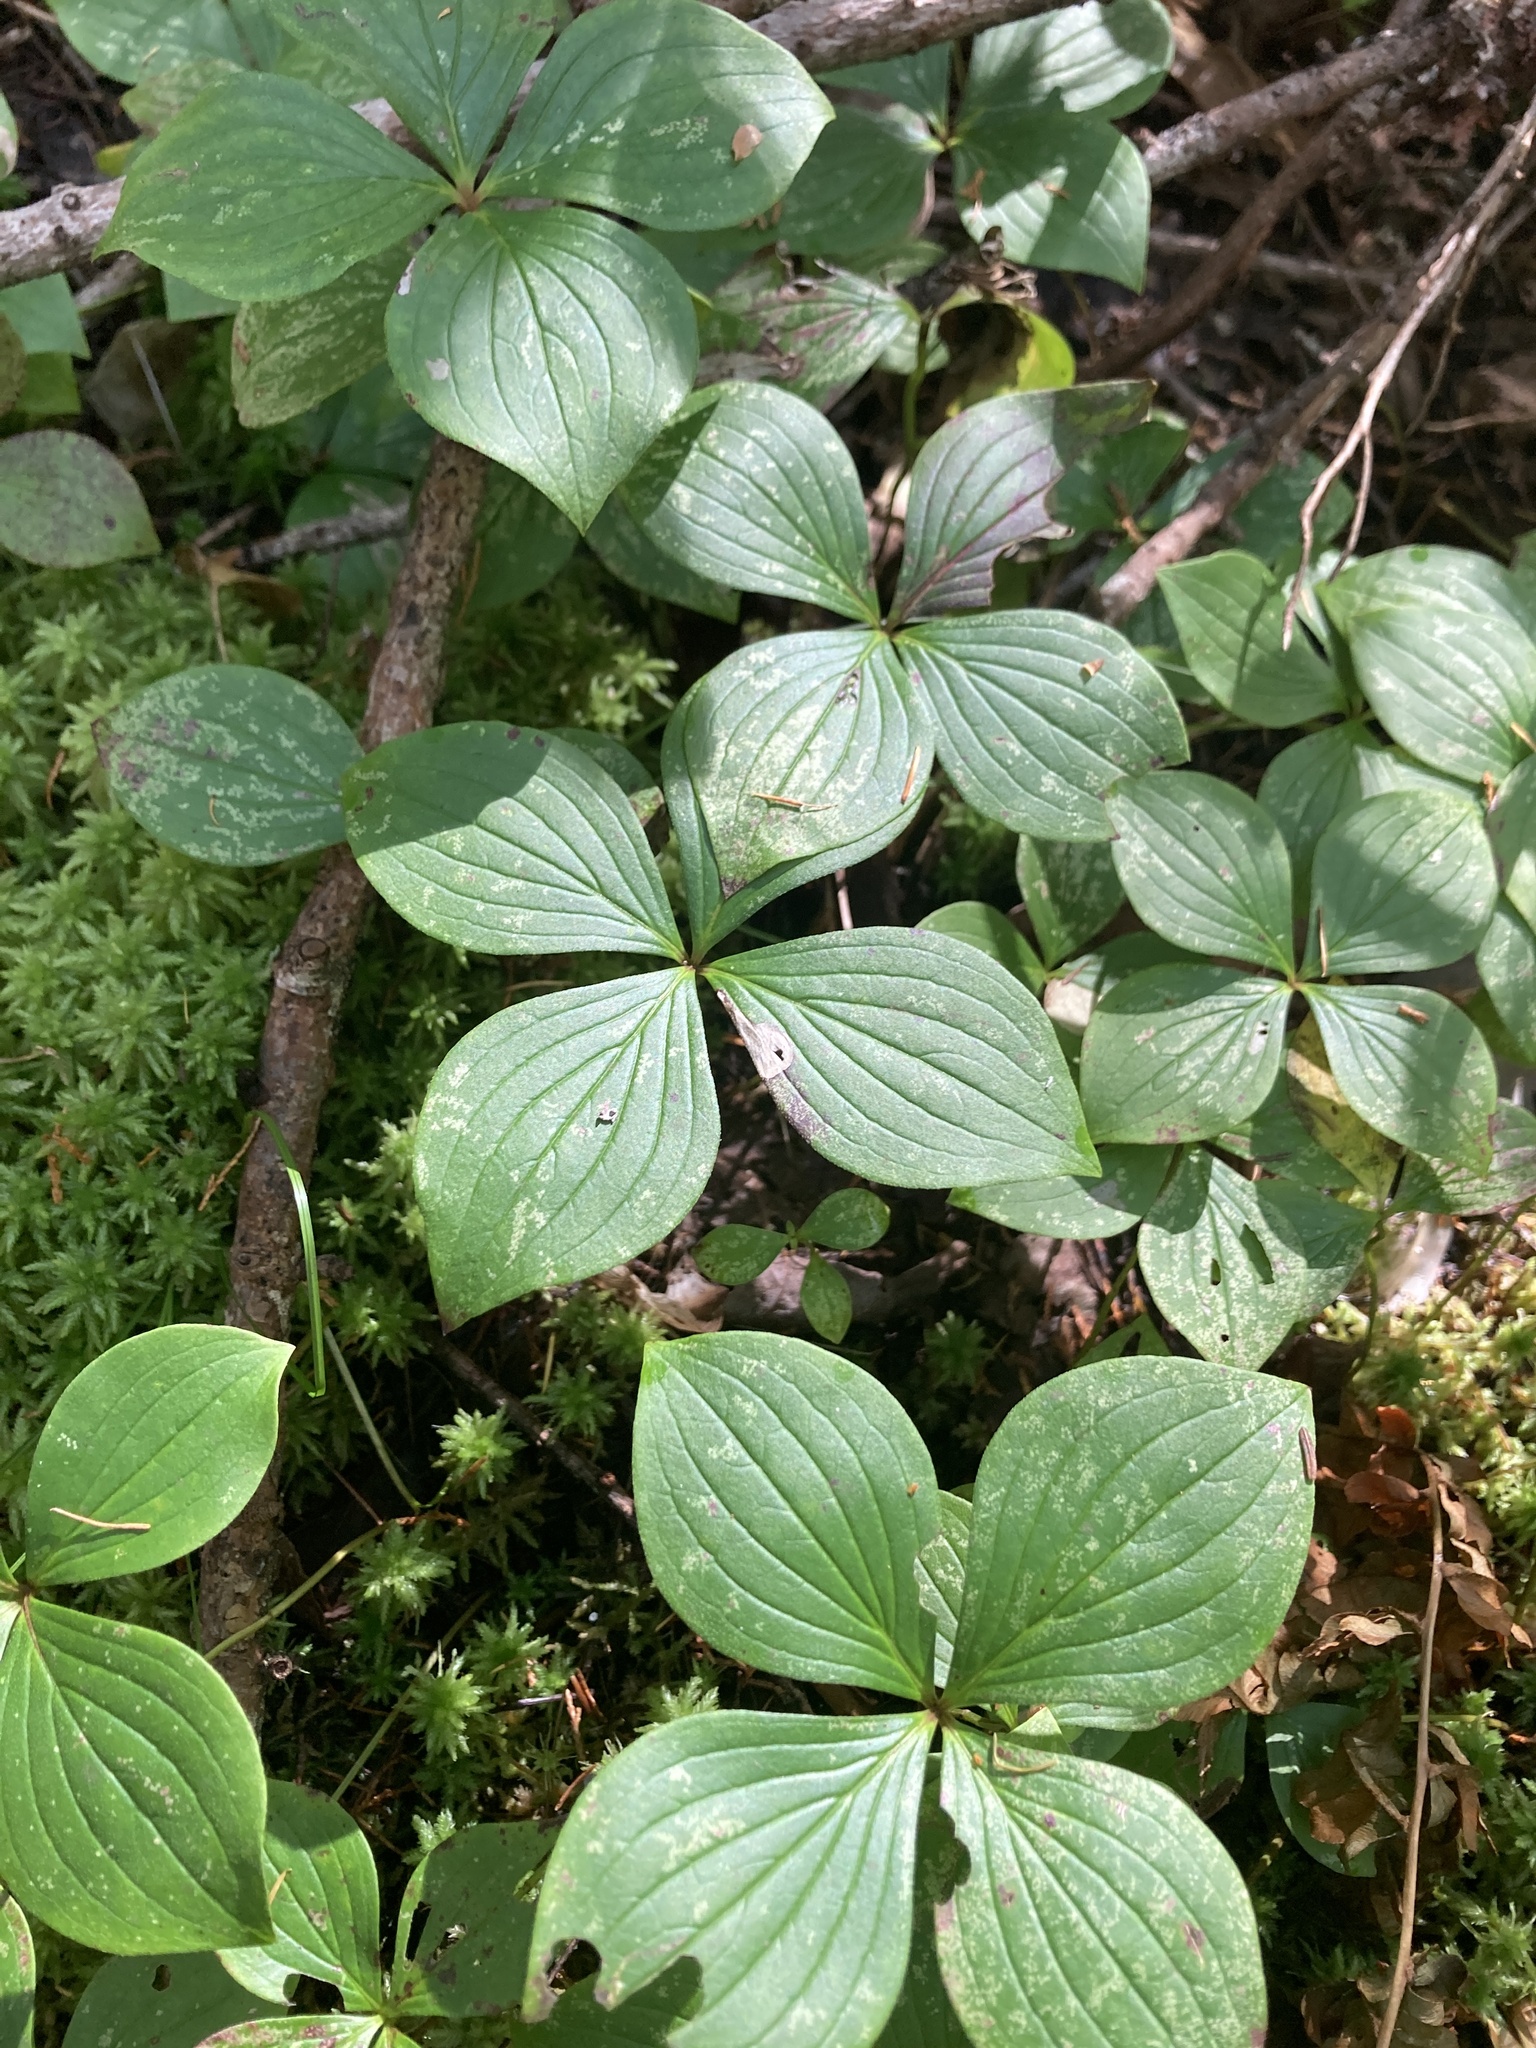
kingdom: Plantae
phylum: Tracheophyta
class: Magnoliopsida
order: Cornales
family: Cornaceae
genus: Cornus
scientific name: Cornus canadensis
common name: Creeping dogwood
